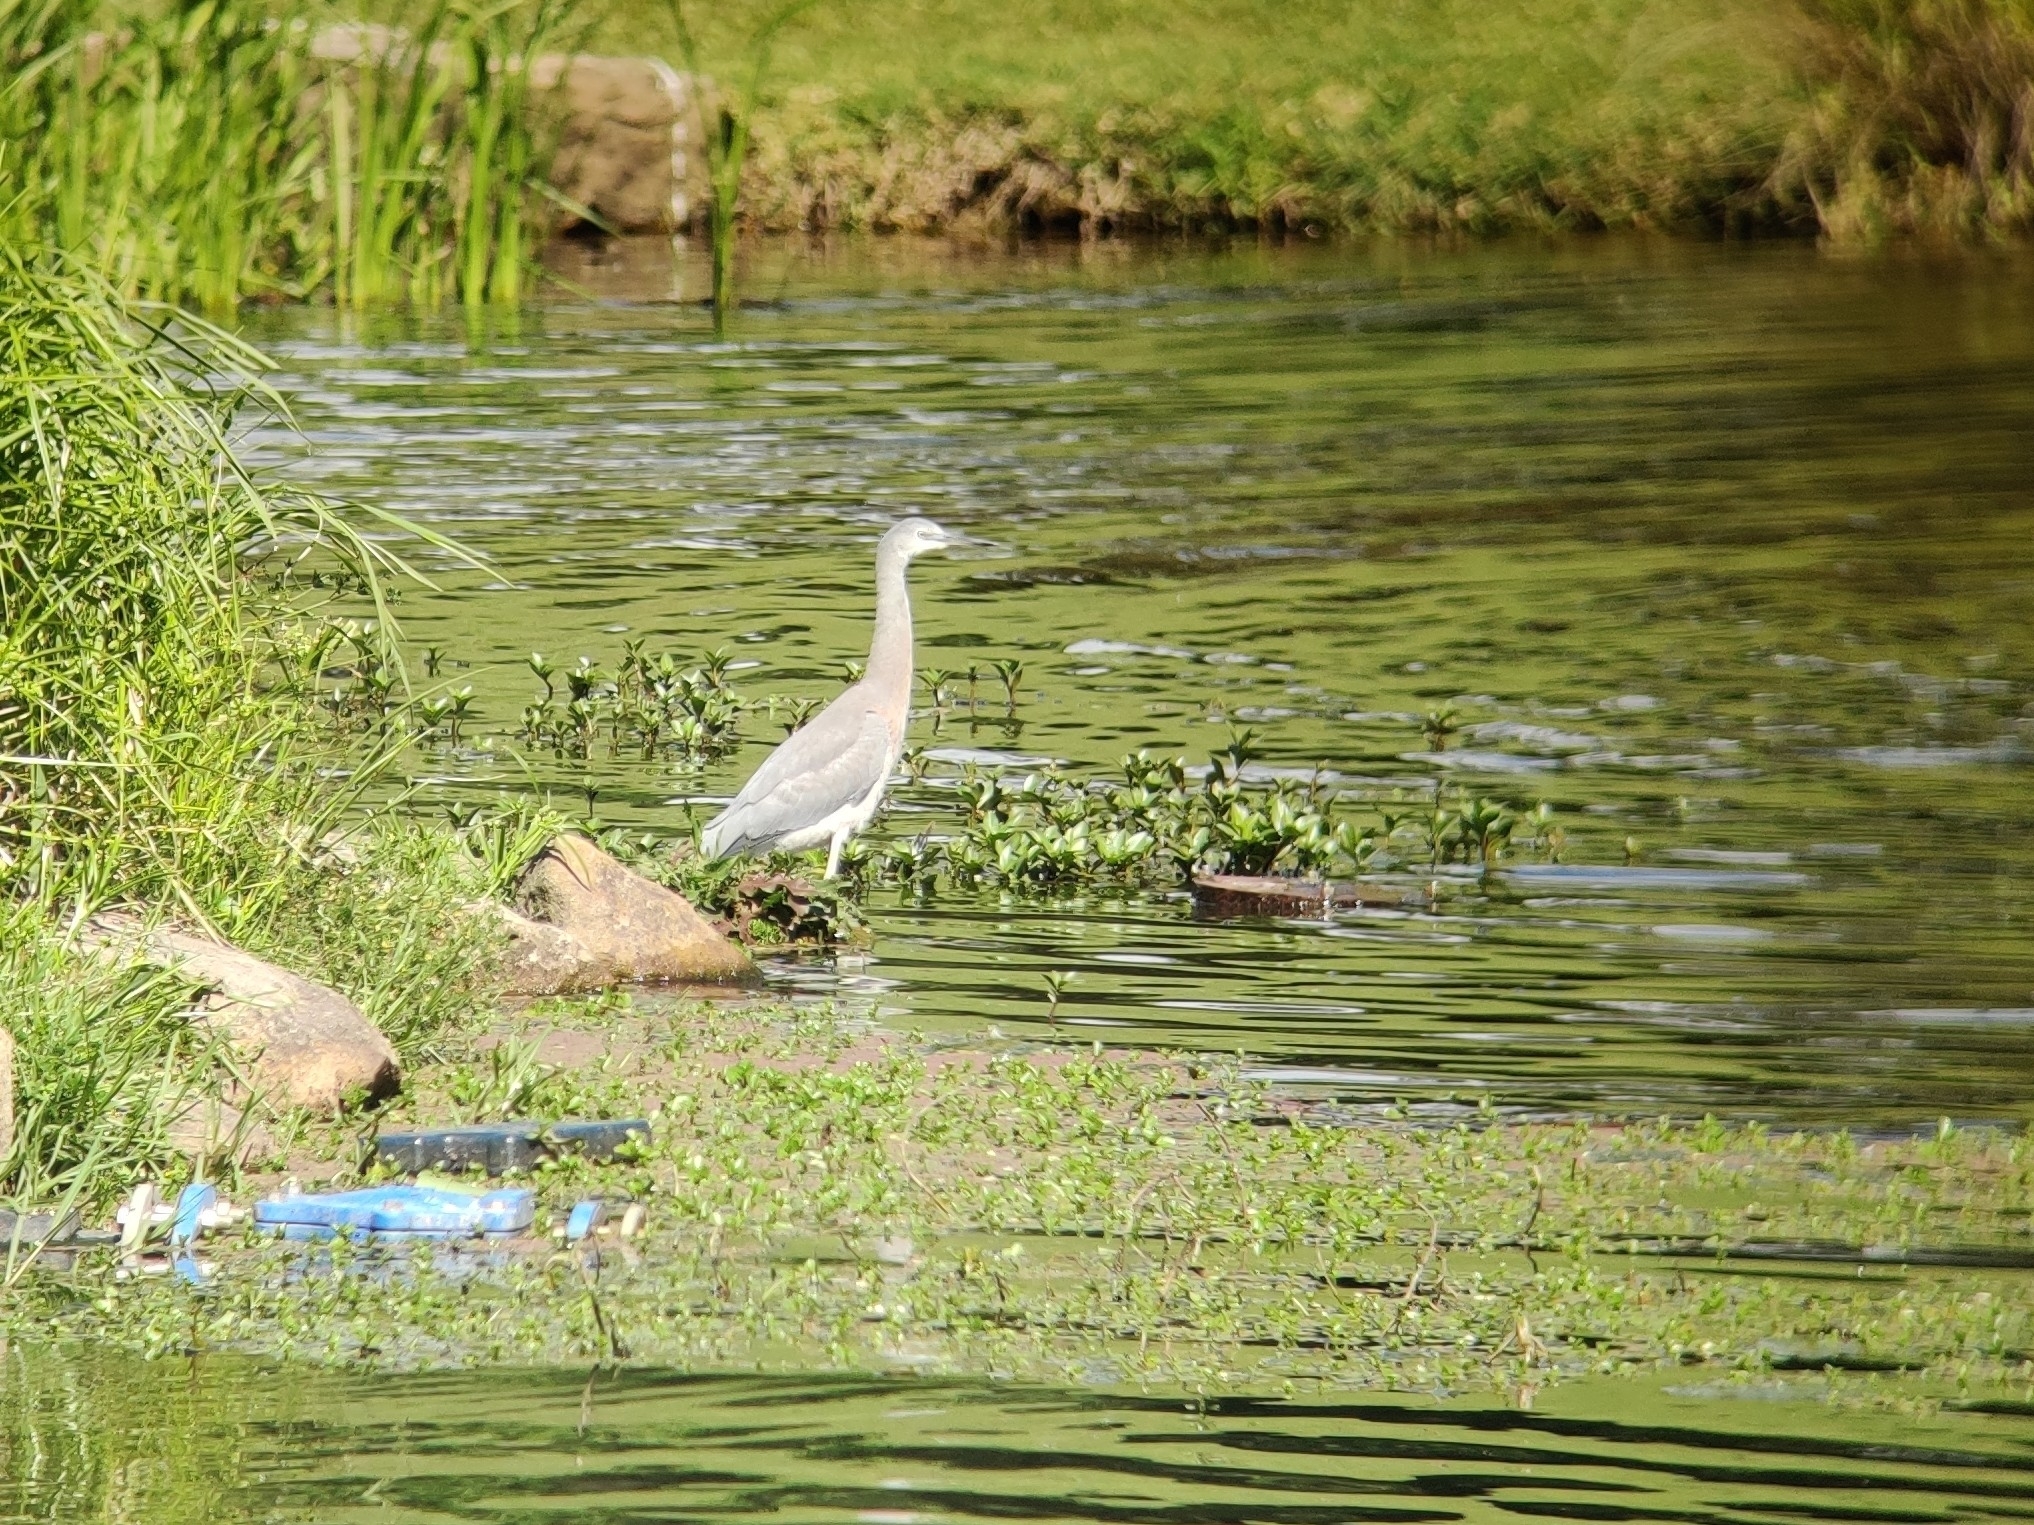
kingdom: Animalia
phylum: Chordata
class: Aves
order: Pelecaniformes
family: Ardeidae
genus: Egretta
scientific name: Egretta novaehollandiae
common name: White-faced heron
